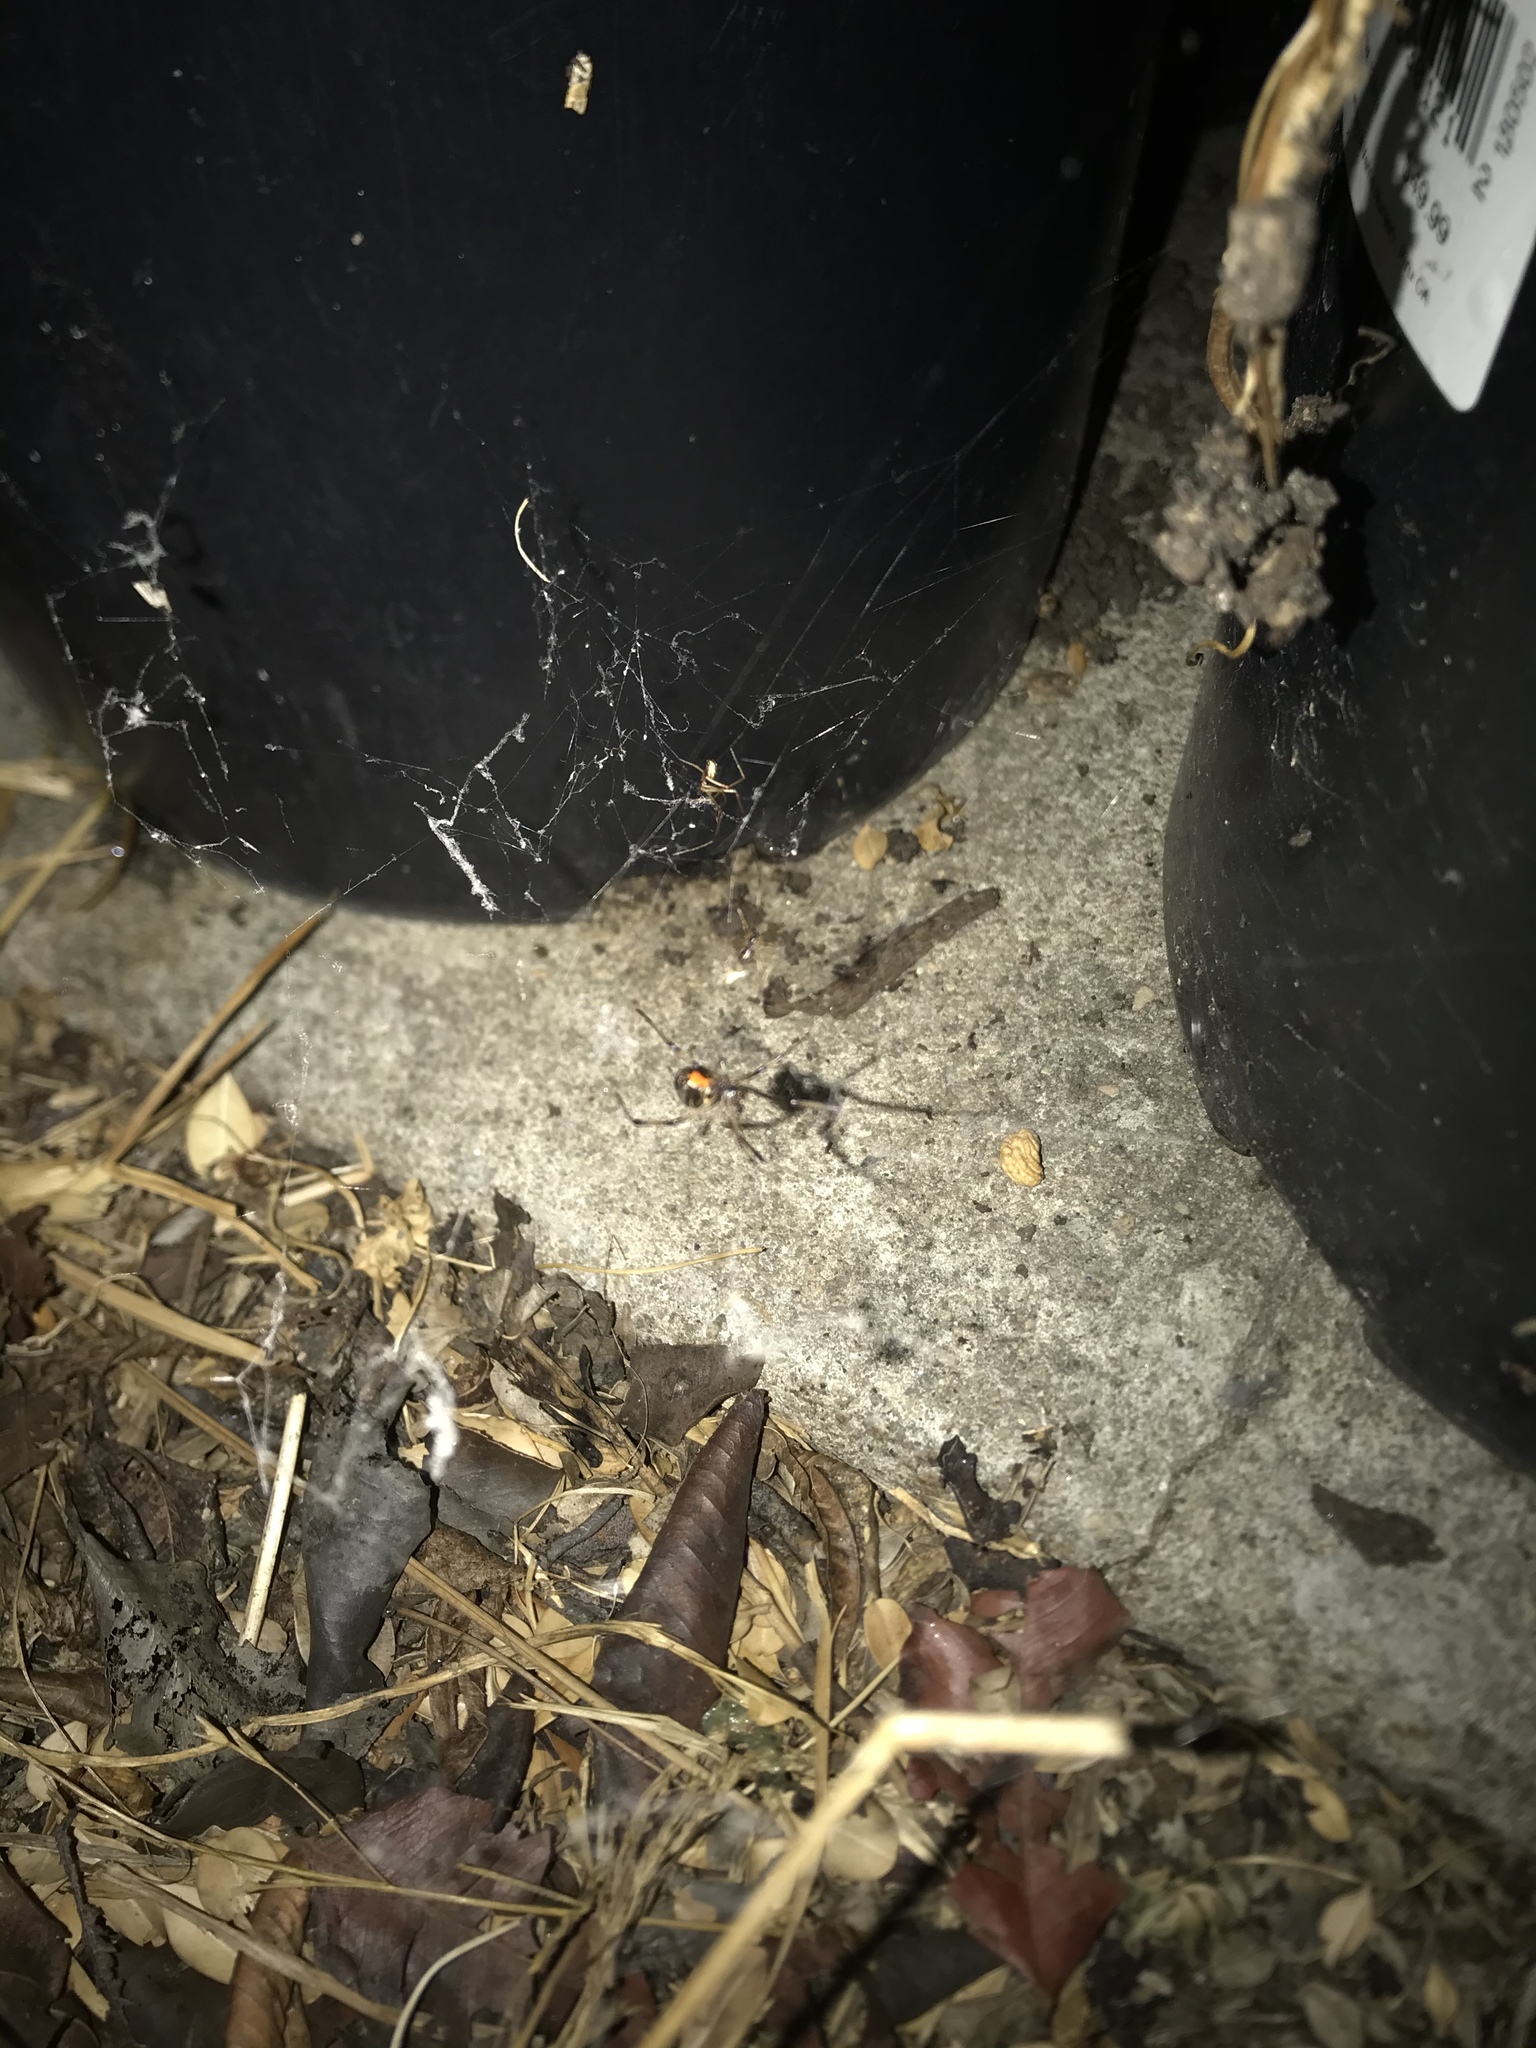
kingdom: Animalia
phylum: Arthropoda
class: Arachnida
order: Araneae
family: Theridiidae
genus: Latrodectus
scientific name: Latrodectus geometricus
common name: Brown widow spider
